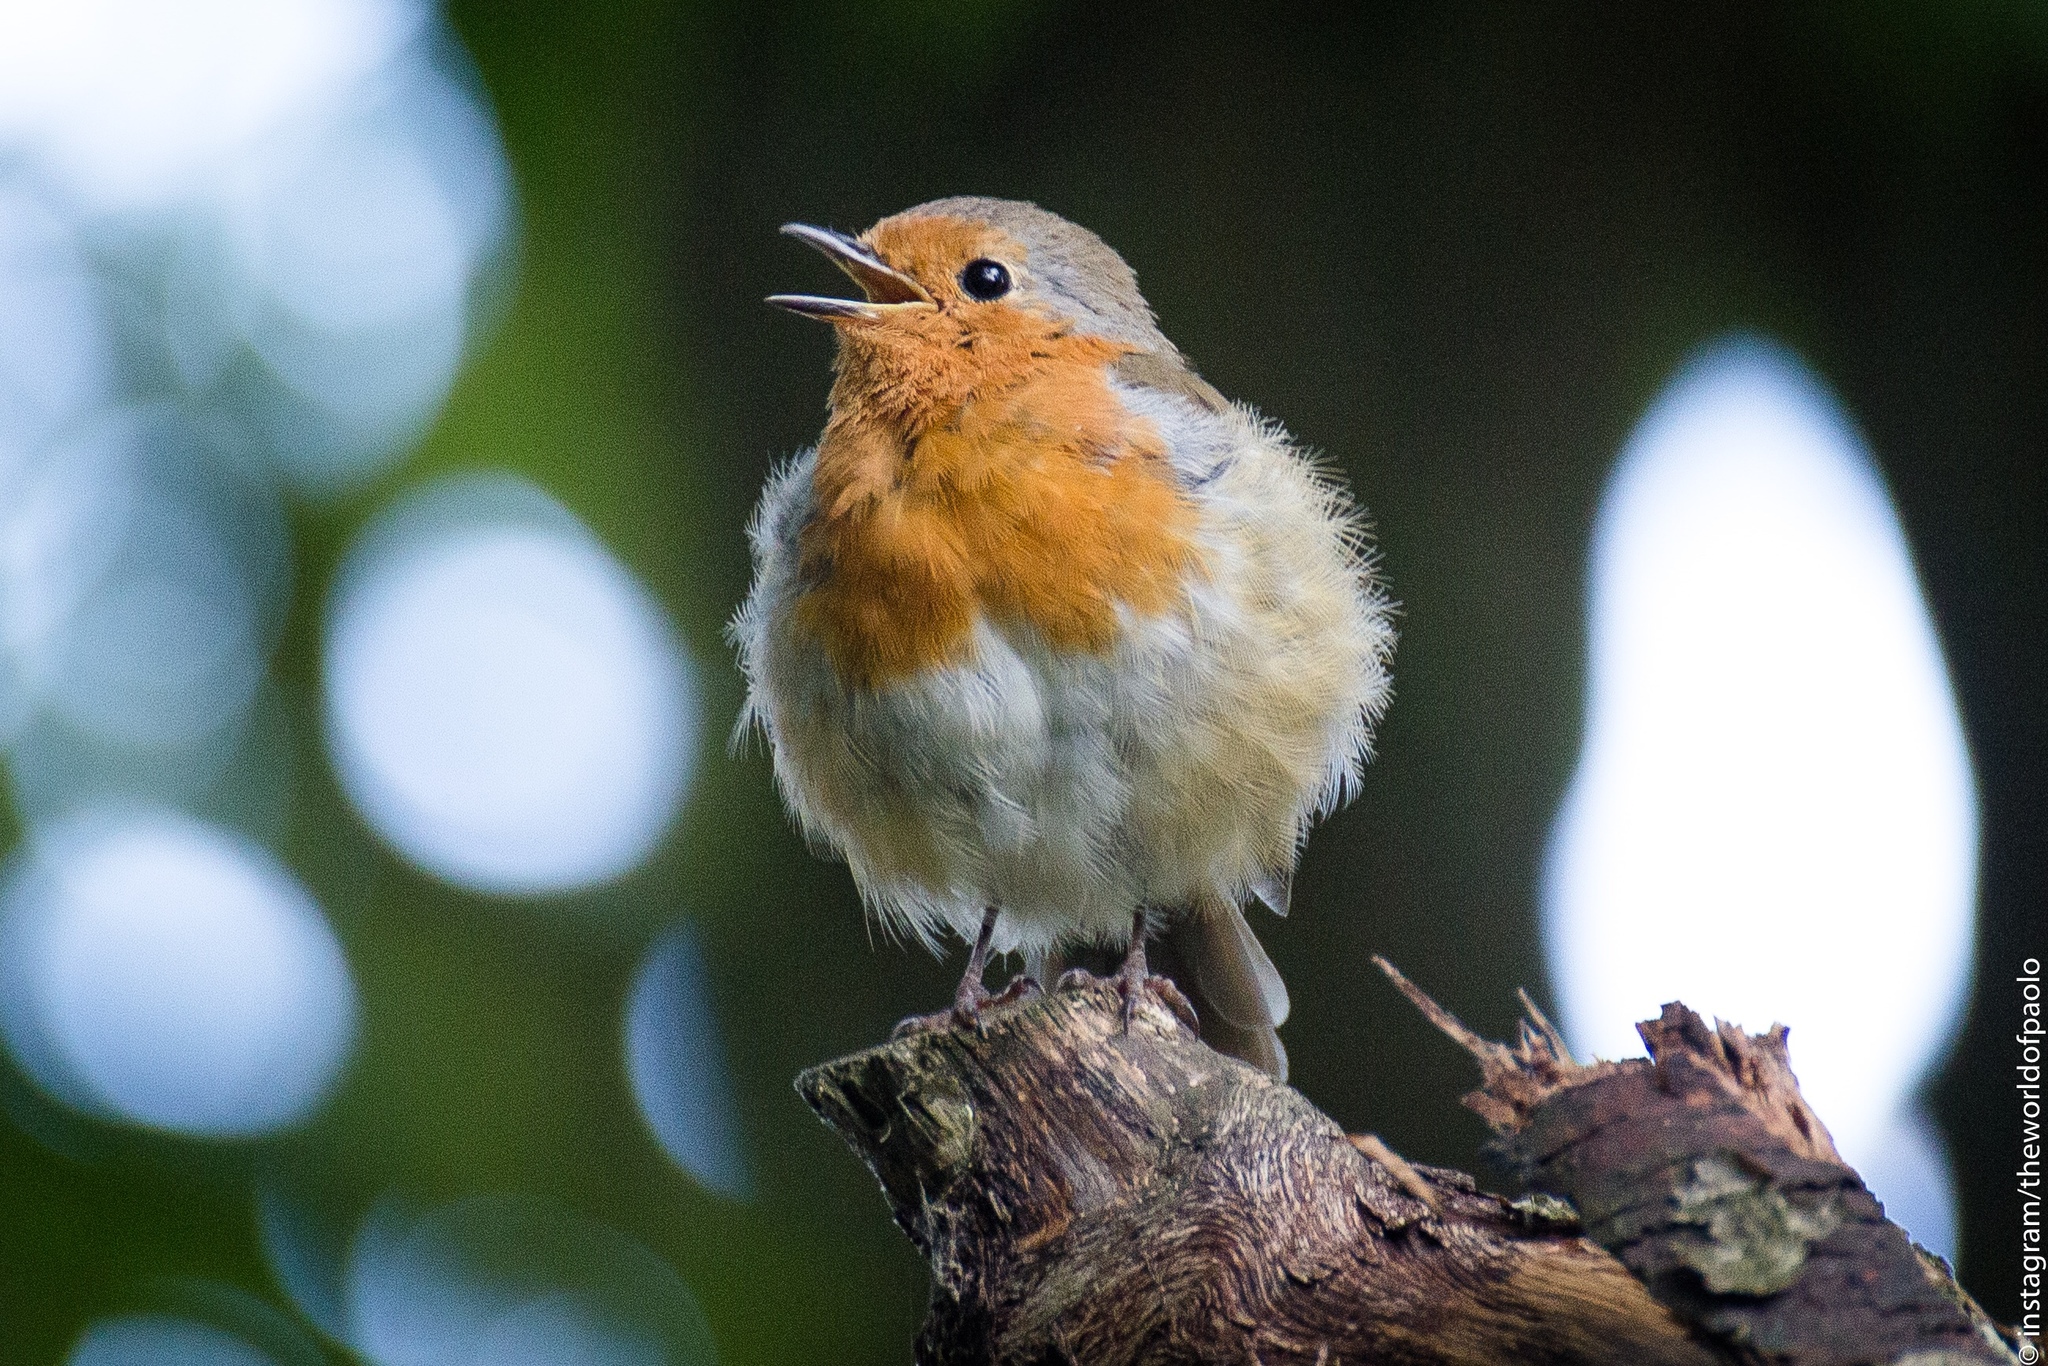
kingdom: Animalia
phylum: Chordata
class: Aves
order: Passeriformes
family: Muscicapidae
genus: Erithacus
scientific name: Erithacus rubecula
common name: European robin
